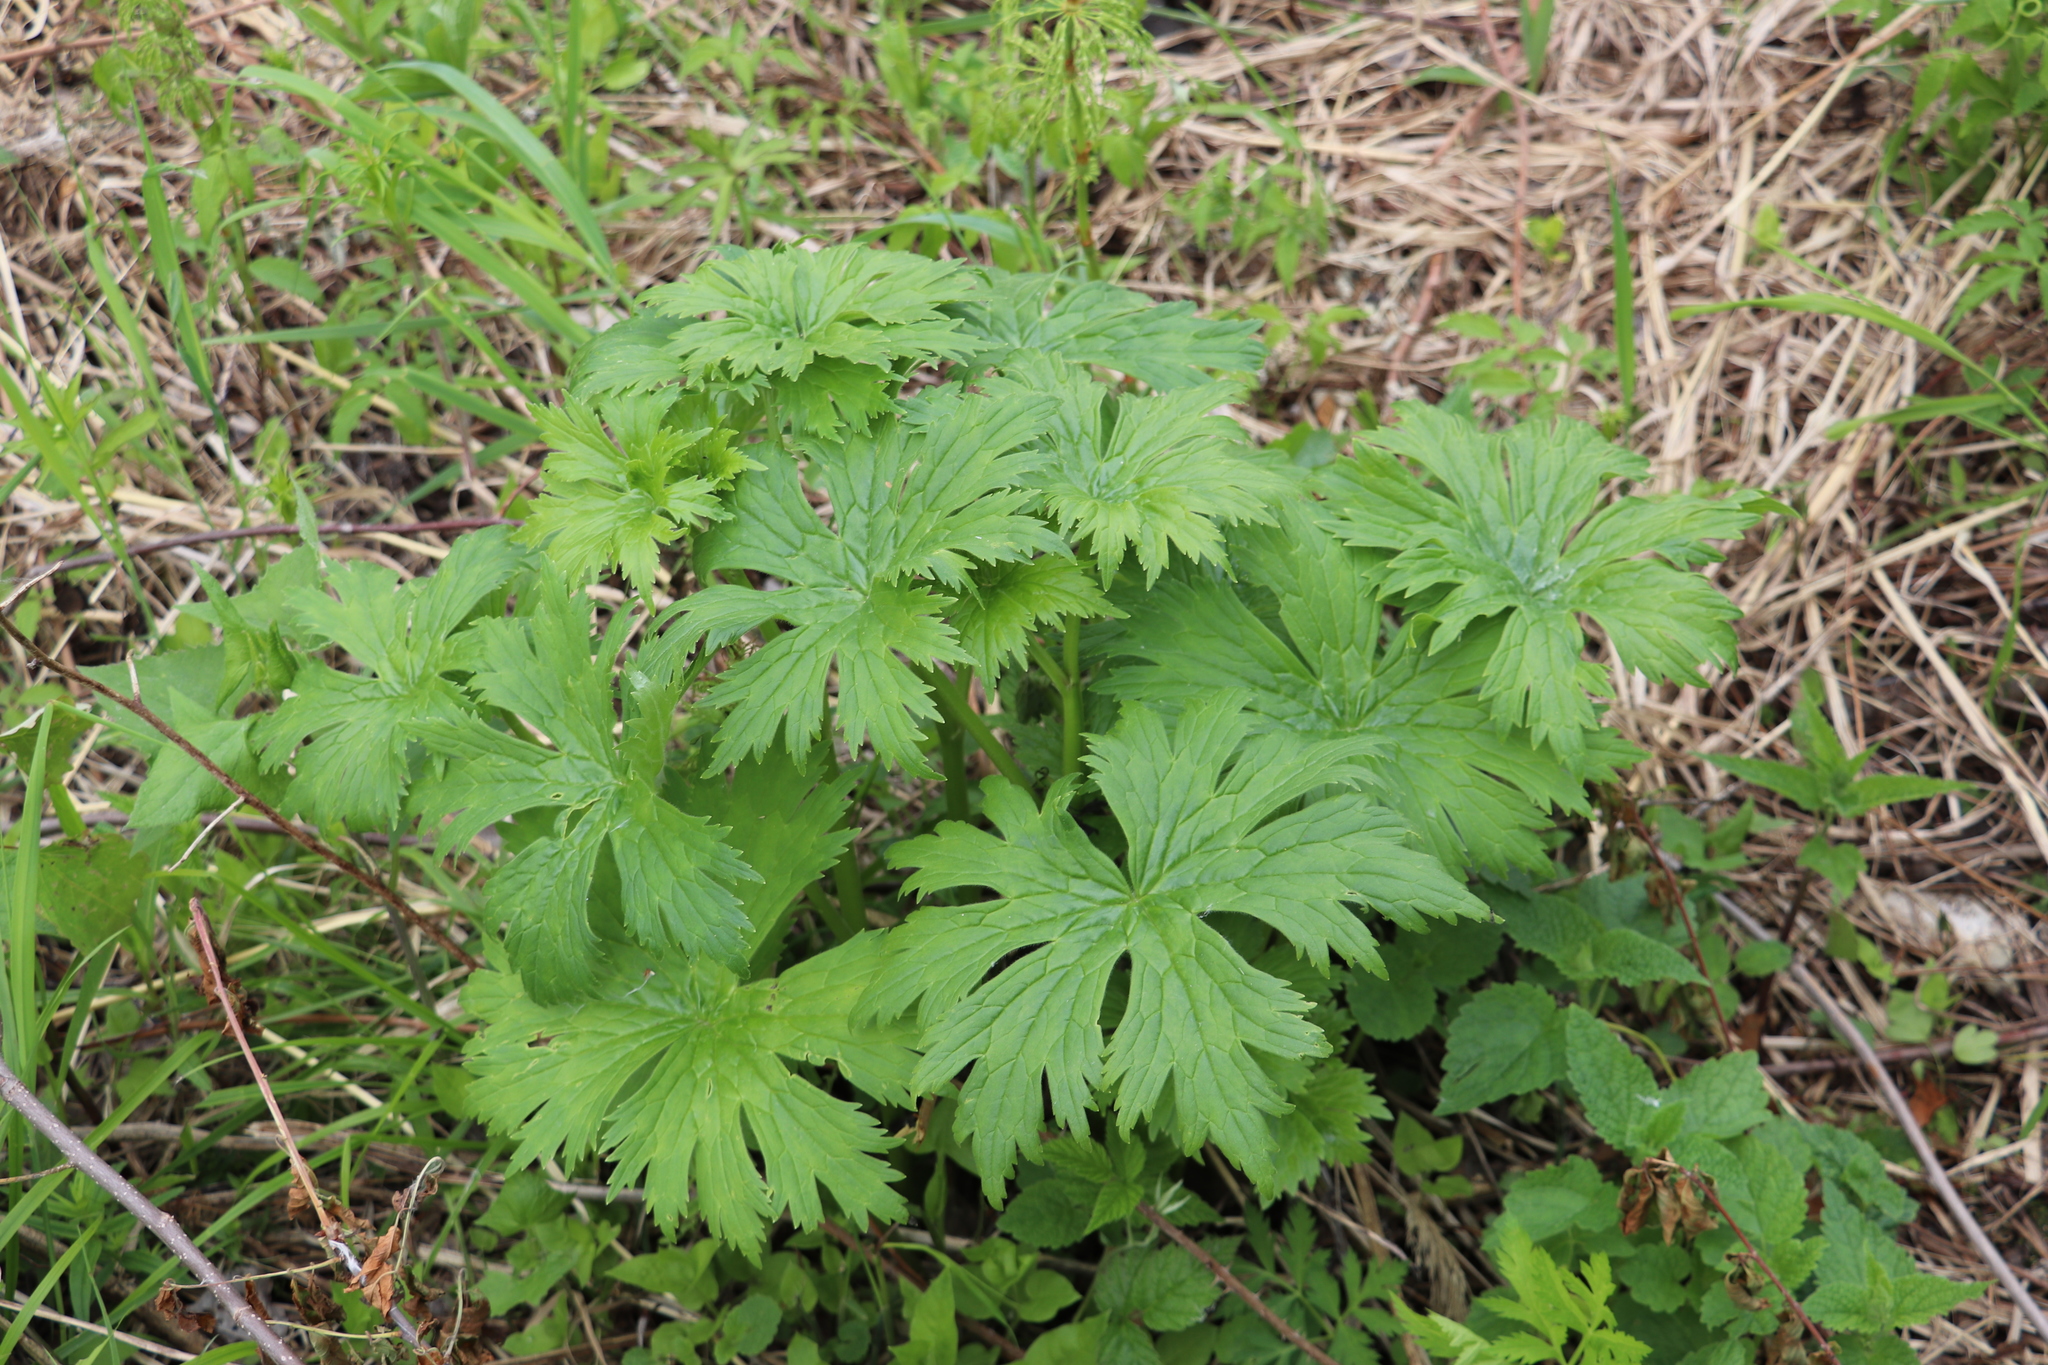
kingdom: Plantae
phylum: Tracheophyta
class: Magnoliopsida
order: Ranunculales
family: Ranunculaceae
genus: Aconitum
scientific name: Aconitum septentrionale
